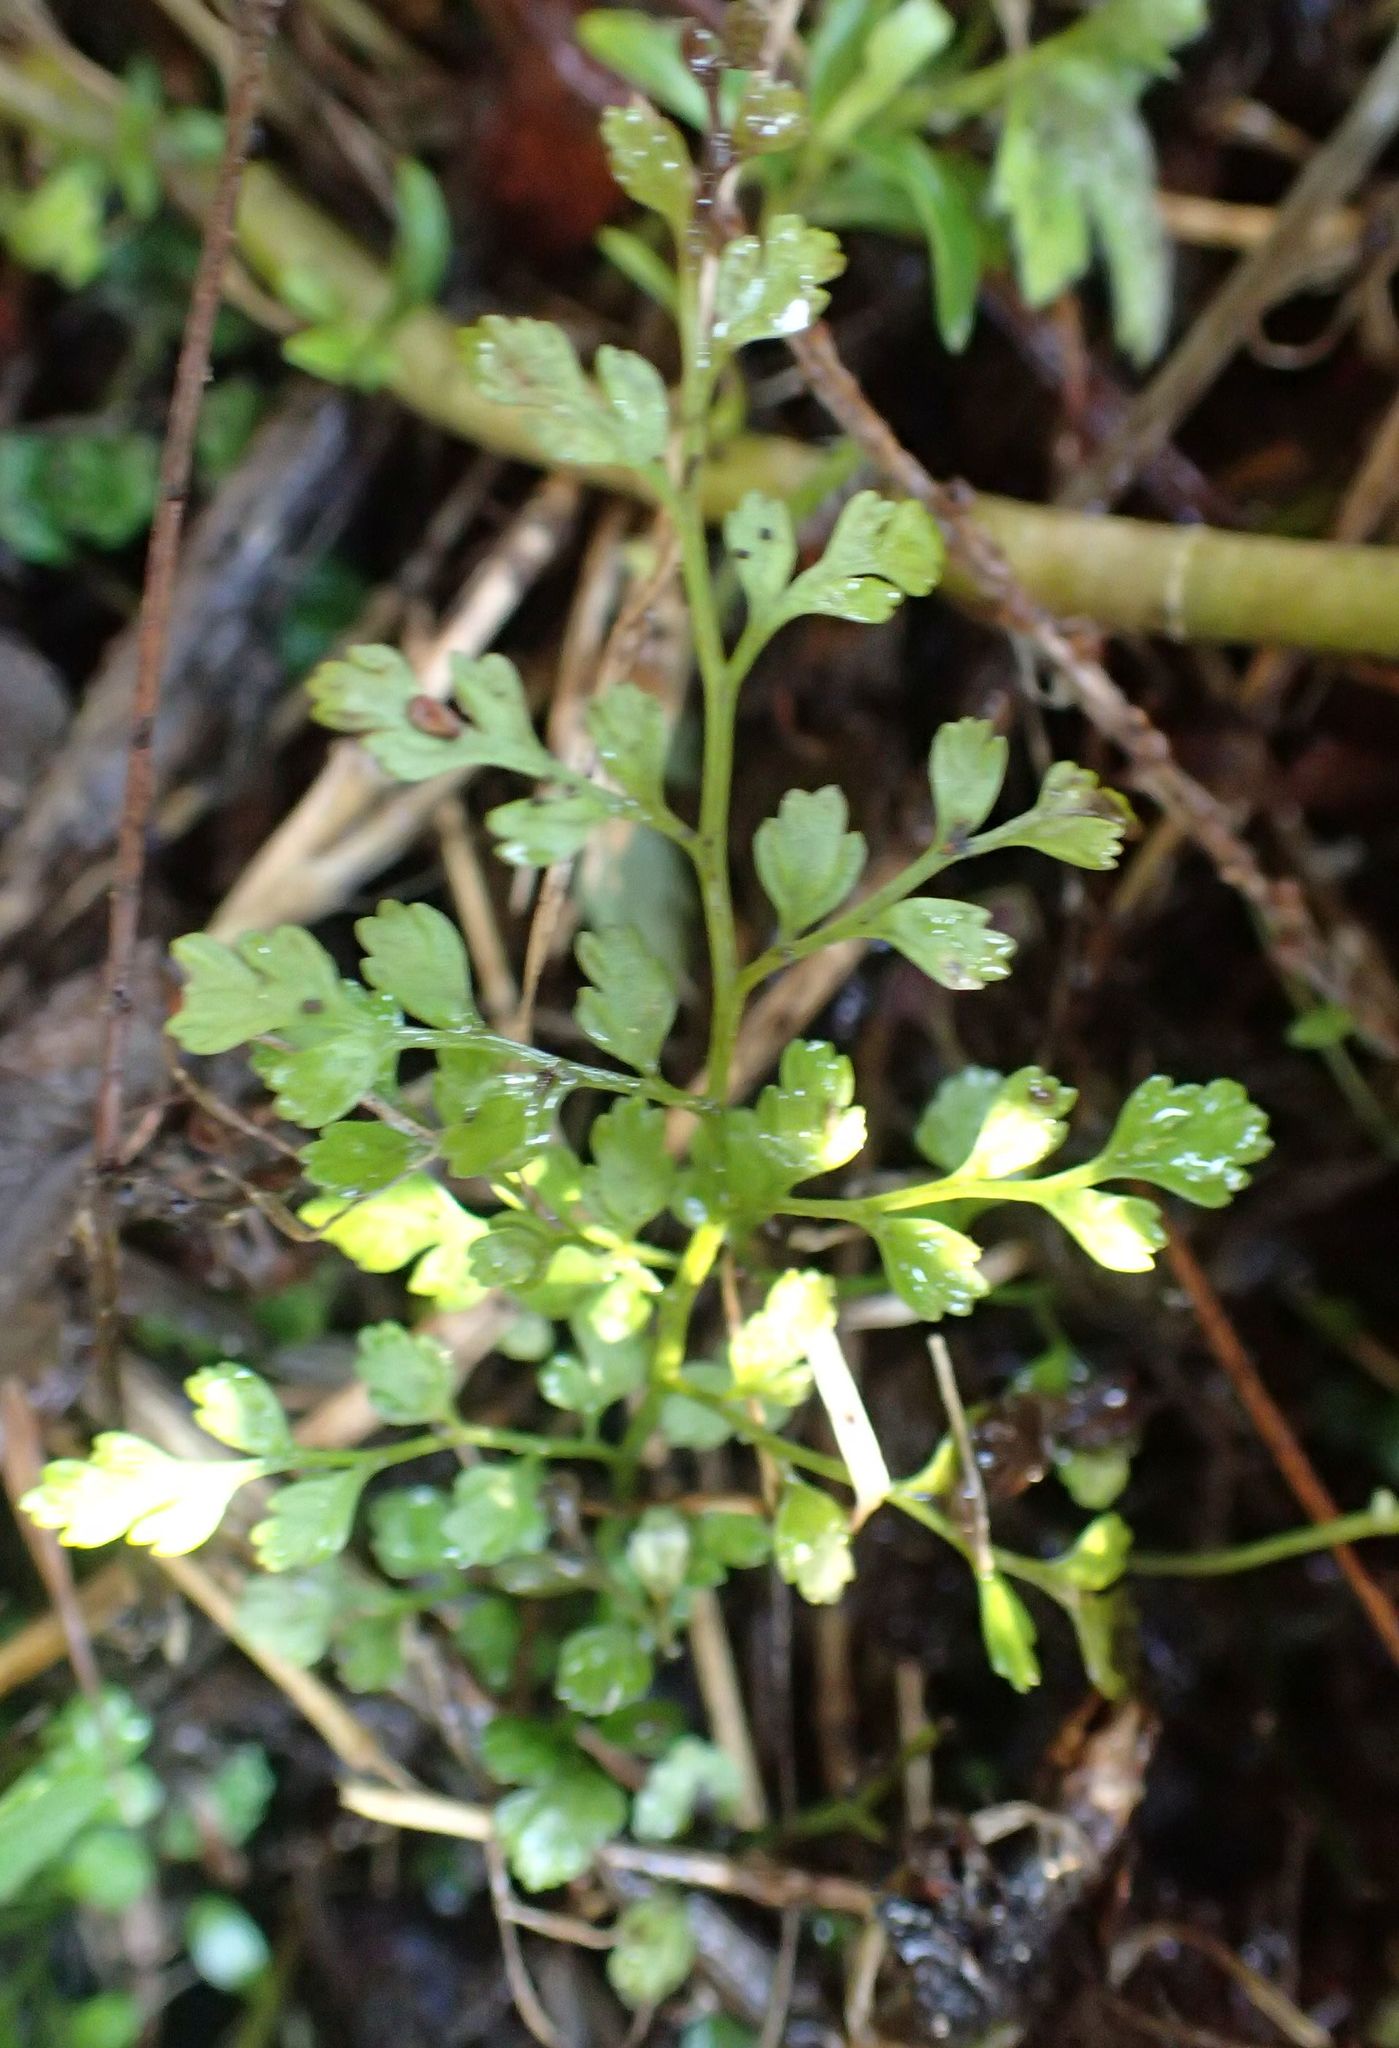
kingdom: Plantae
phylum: Tracheophyta
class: Polypodiopsida
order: Polypodiales
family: Aspleniaceae
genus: Asplenium
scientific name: Asplenium hookerianum
